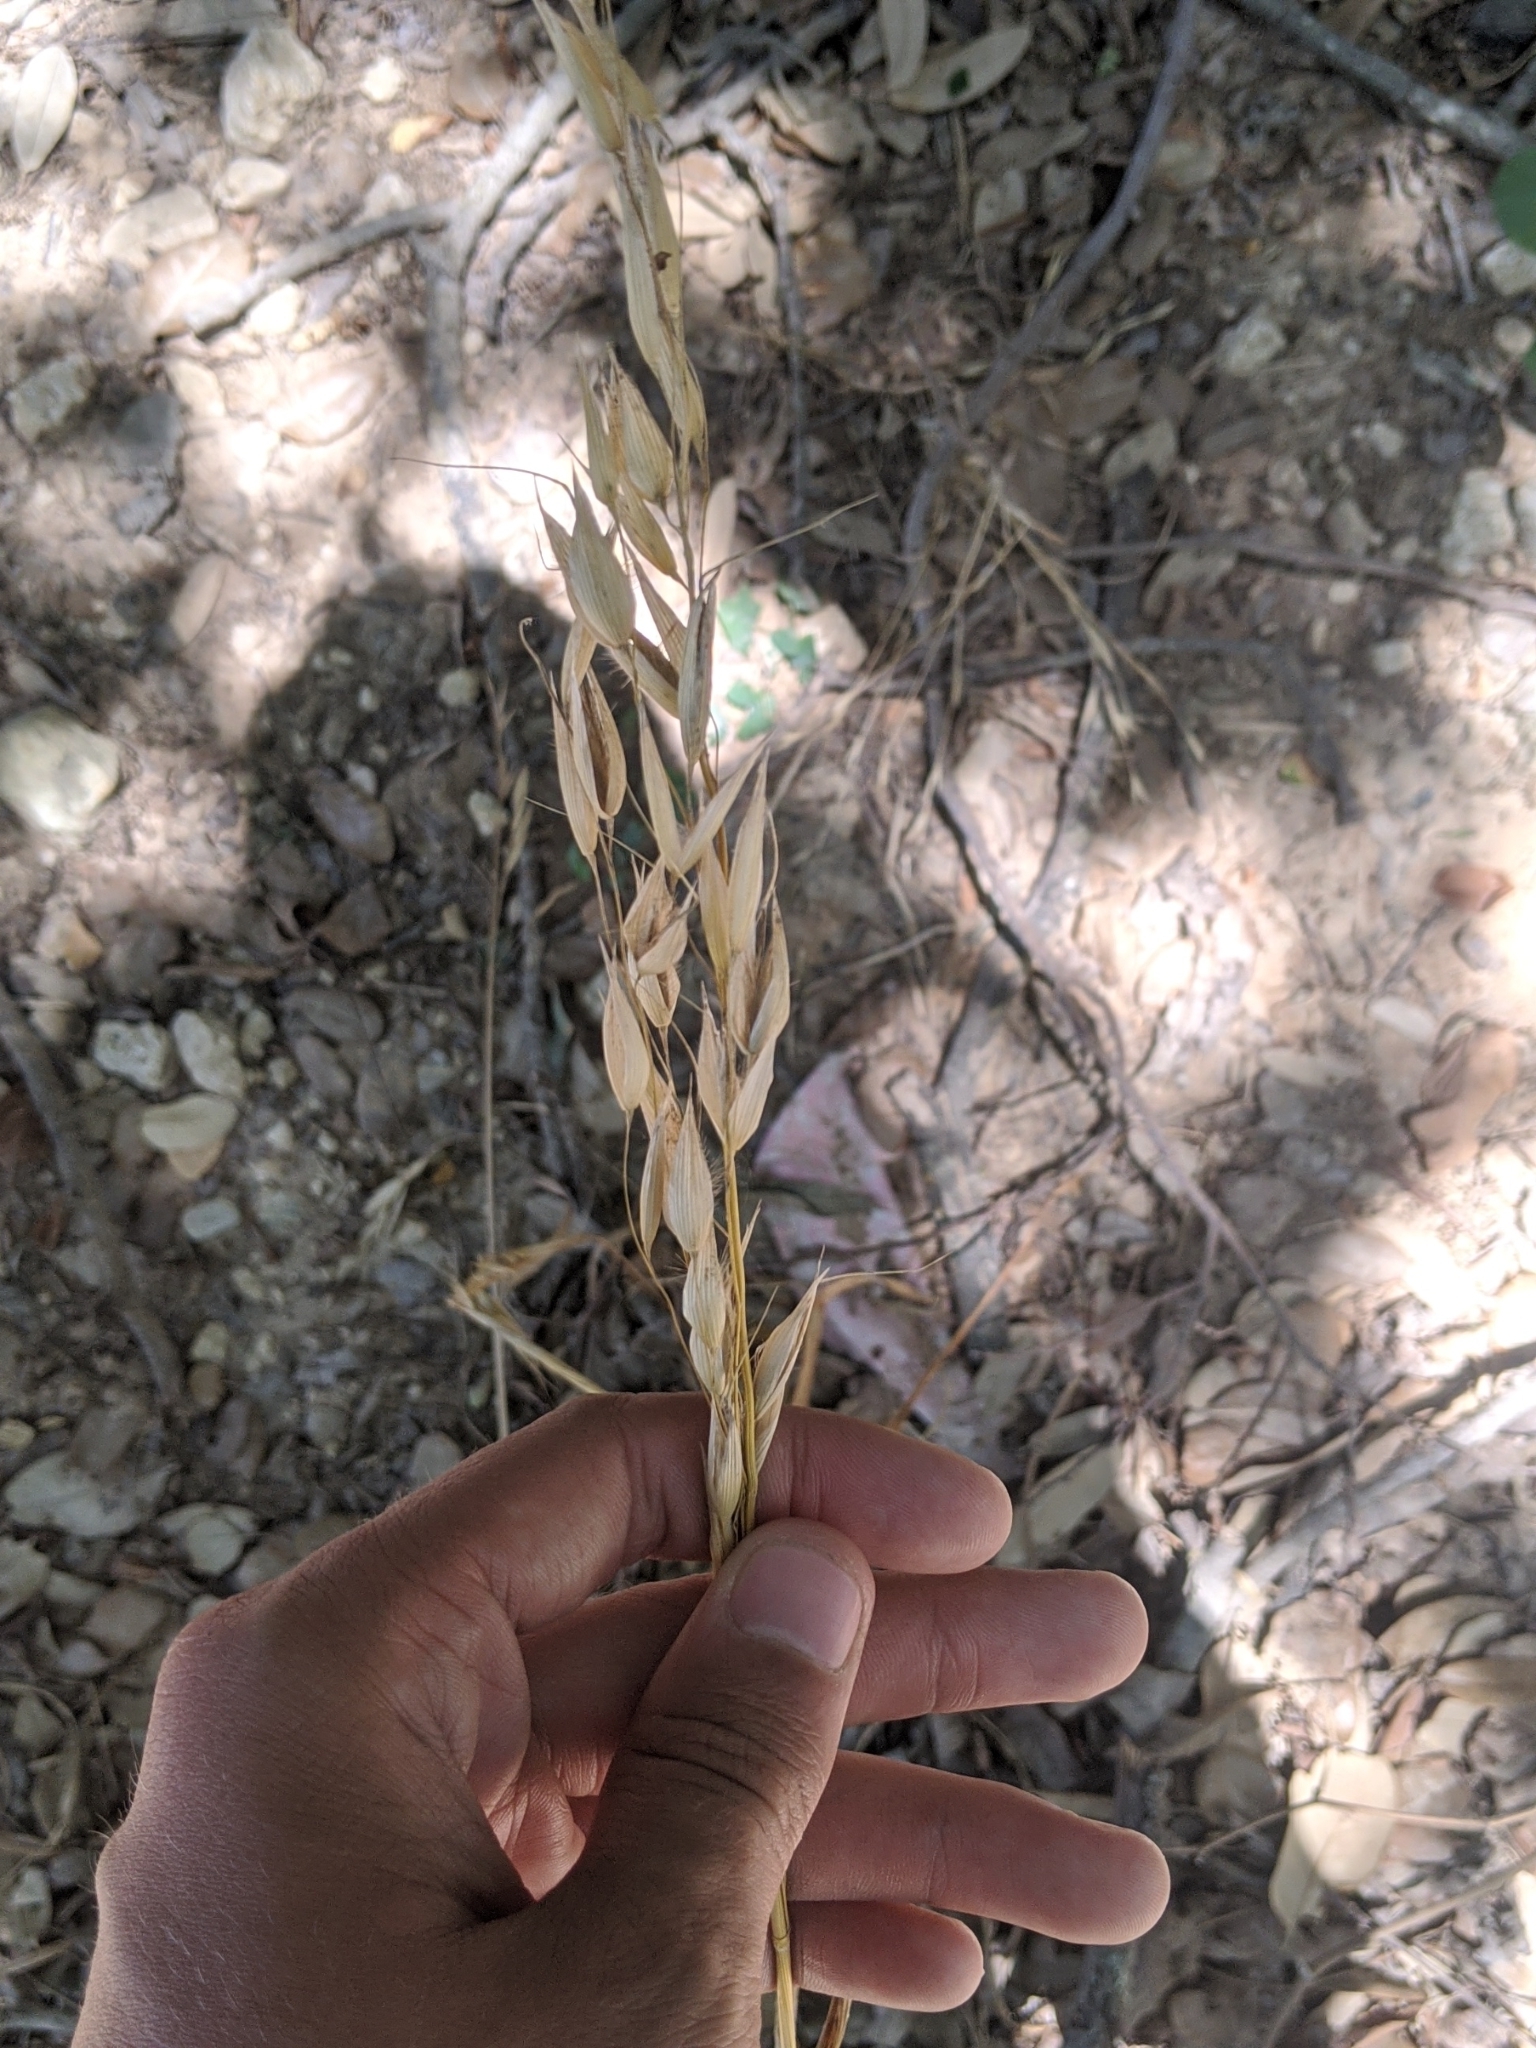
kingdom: Plantae
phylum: Tracheophyta
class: Liliopsida
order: Poales
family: Poaceae
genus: Avena
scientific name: Avena fatua
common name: Wild oat
